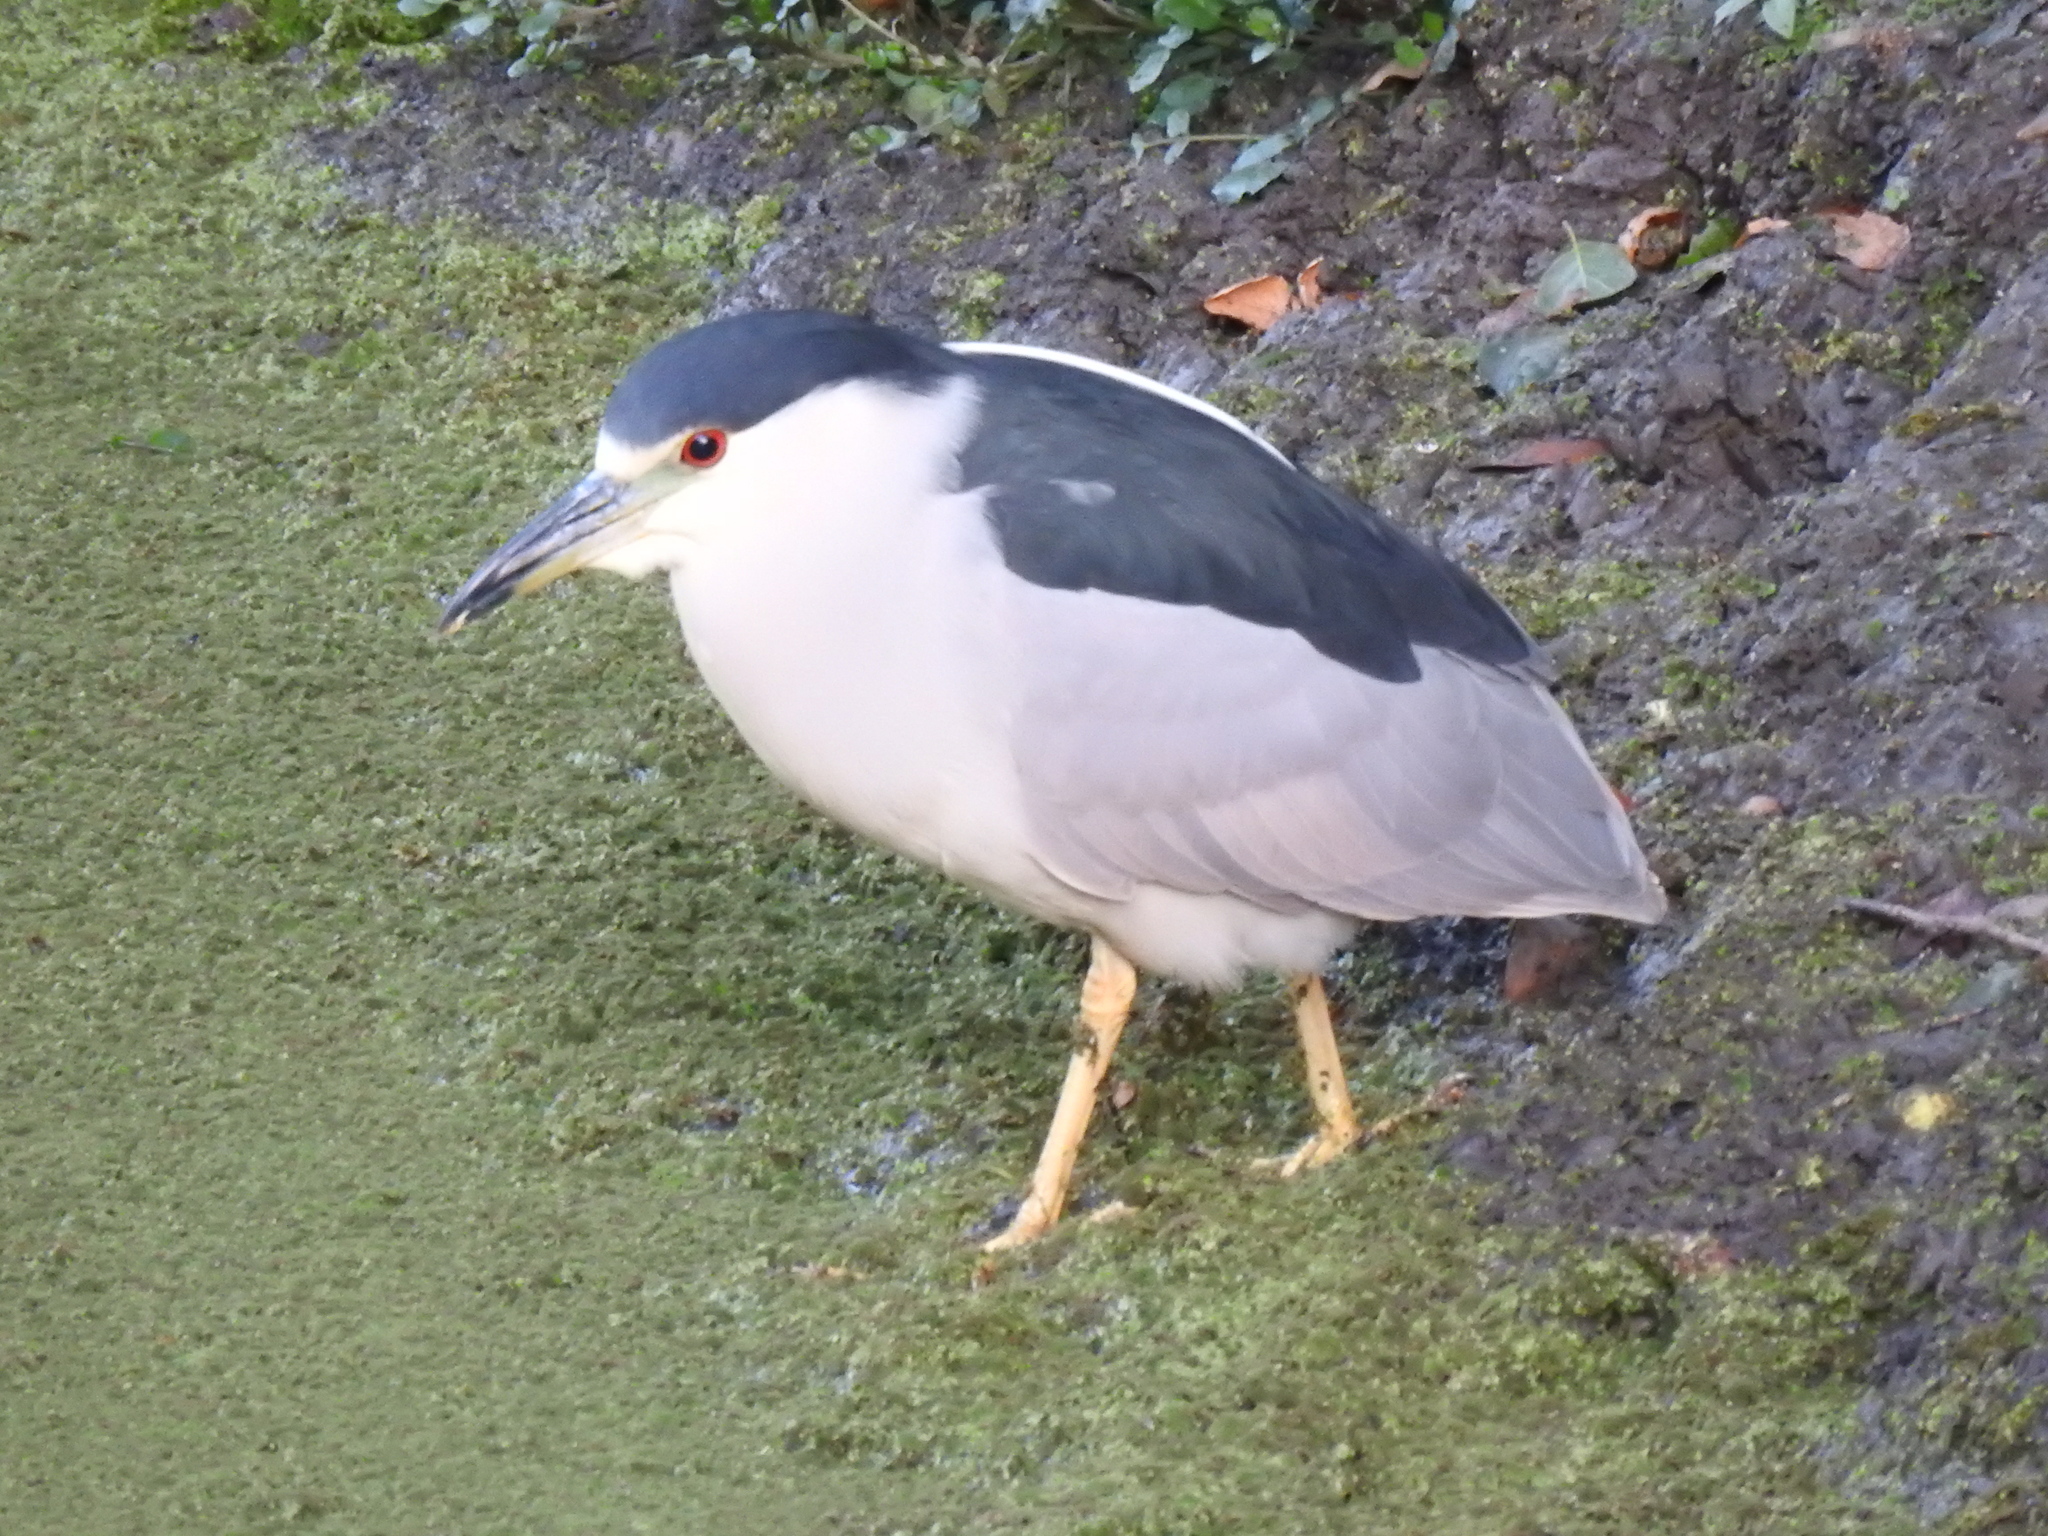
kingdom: Animalia
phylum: Chordata
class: Aves
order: Pelecaniformes
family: Ardeidae
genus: Nycticorax
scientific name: Nycticorax nycticorax
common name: Black-crowned night heron
